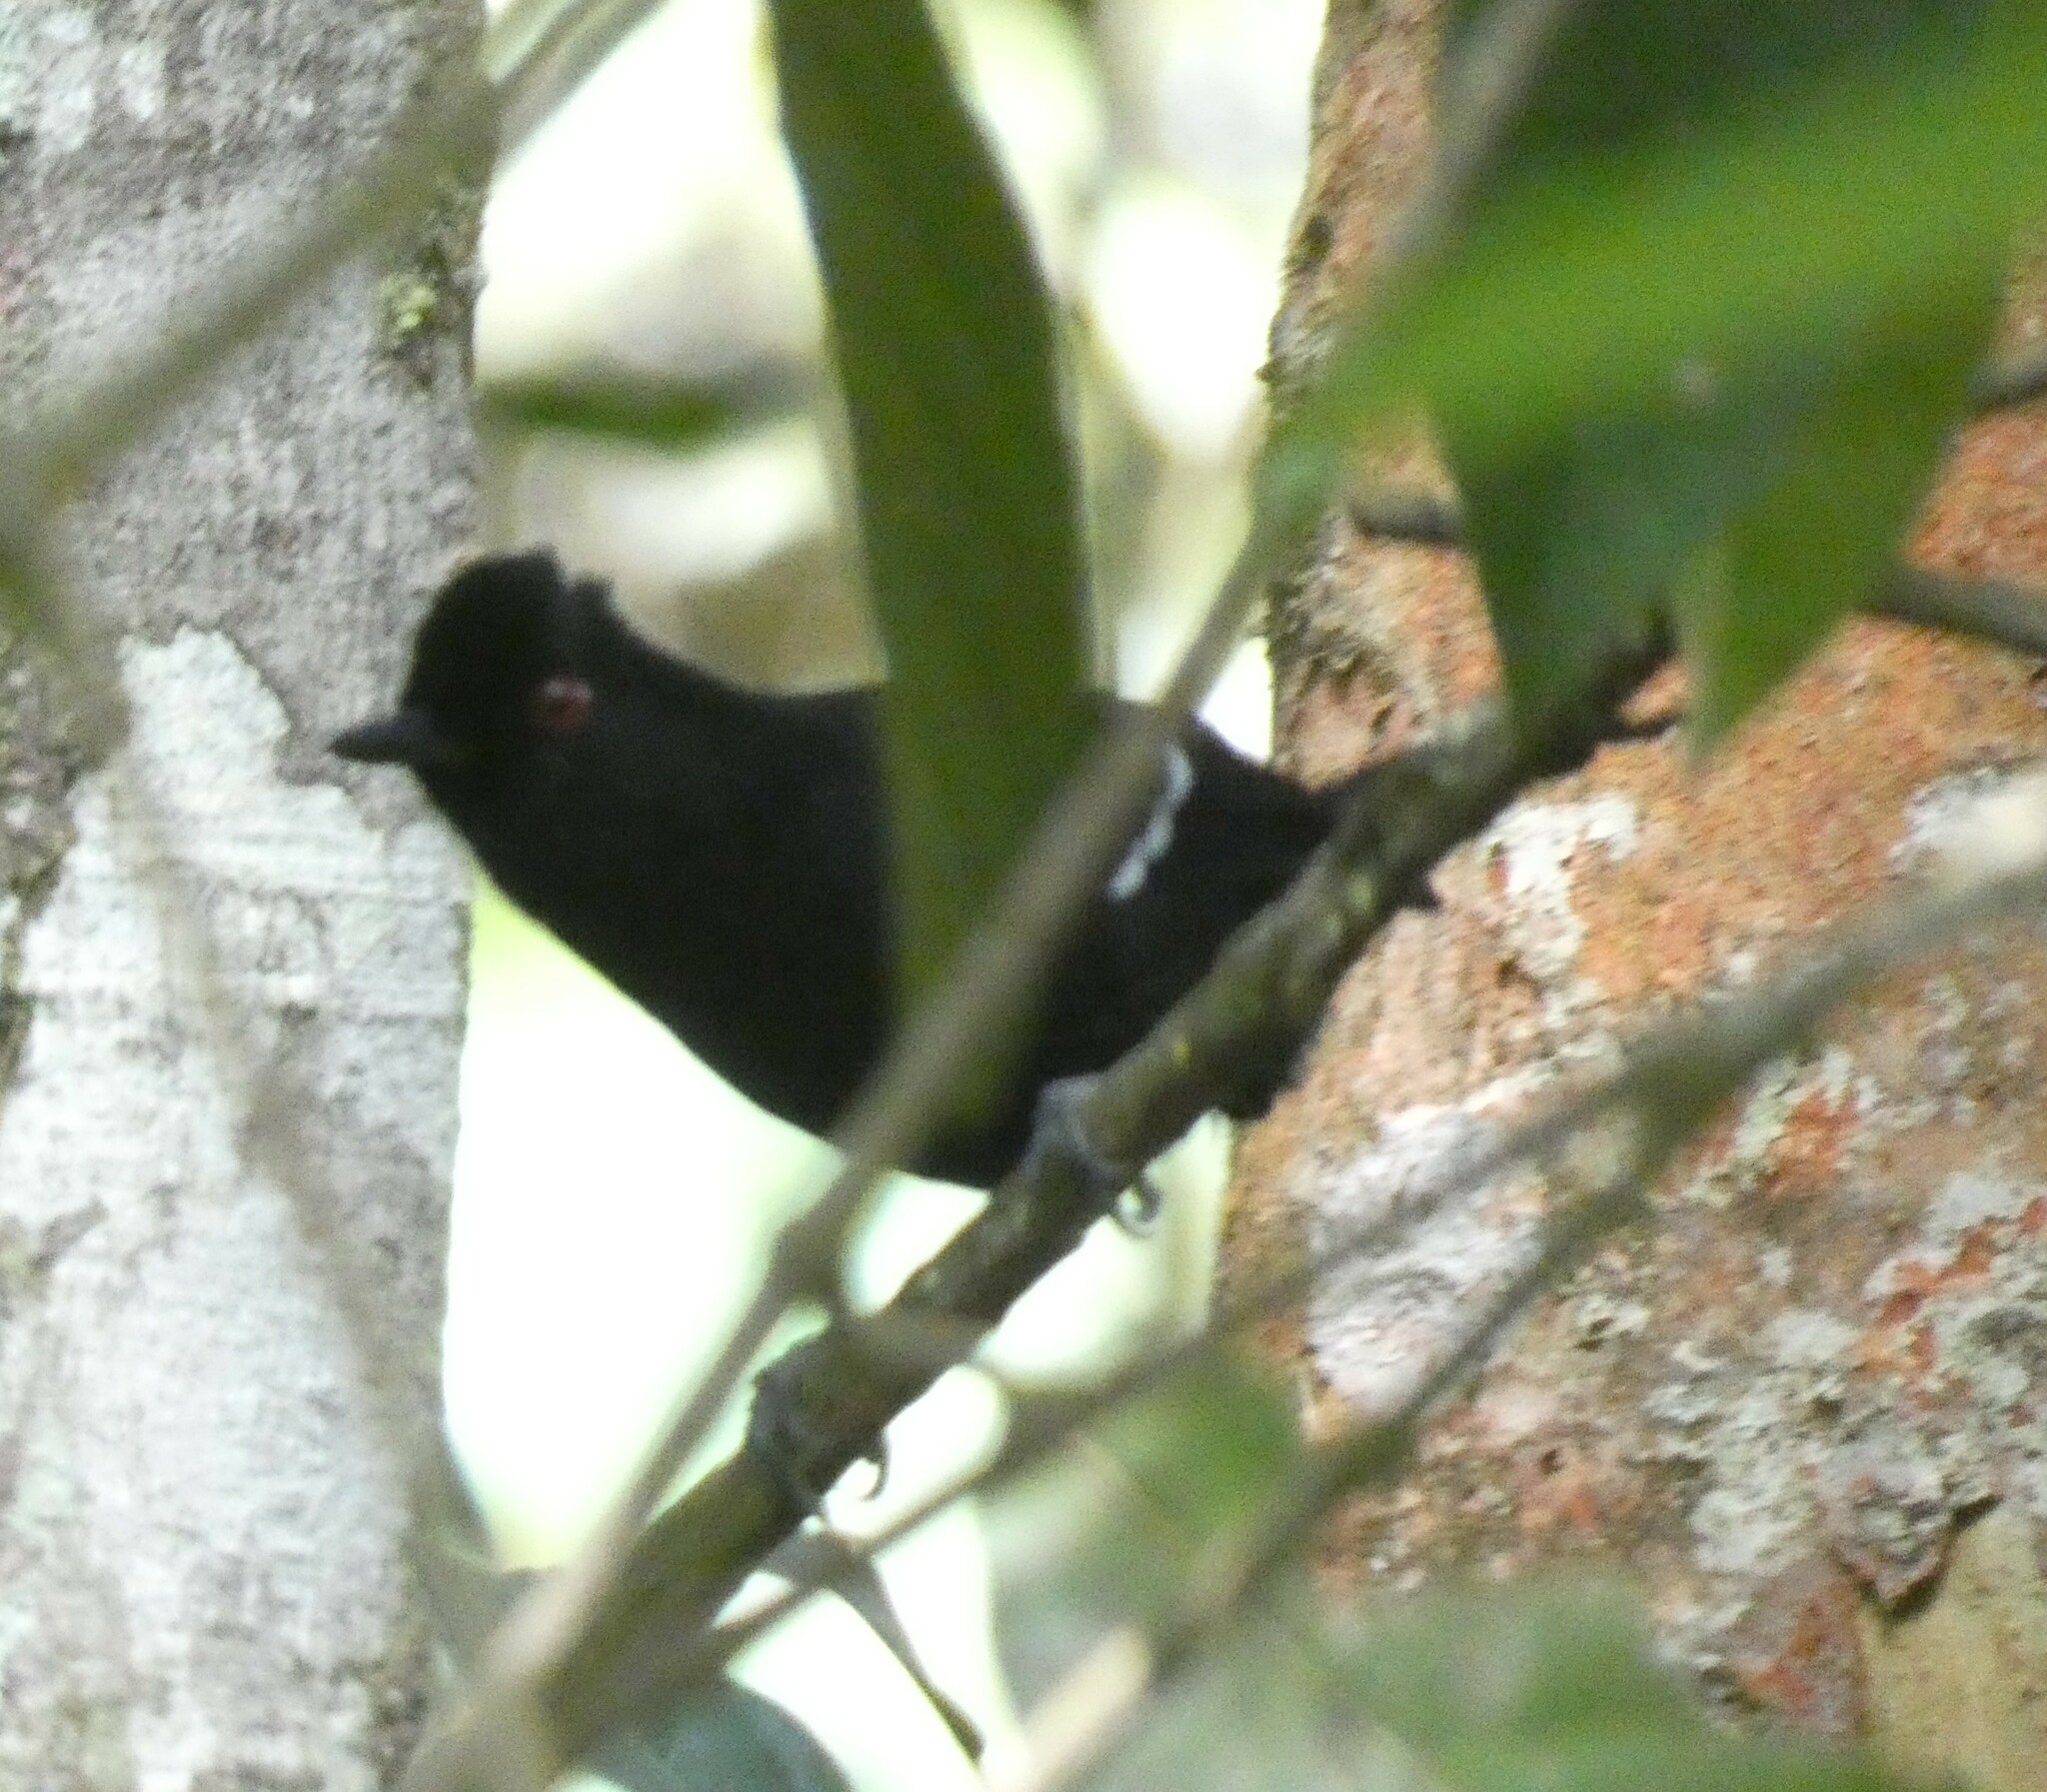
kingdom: Animalia
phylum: Chordata
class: Aves
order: Passeriformes
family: Thamnophilidae
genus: Pyriglena
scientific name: Pyriglena leucoptera
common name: White-shouldered fire-eye
